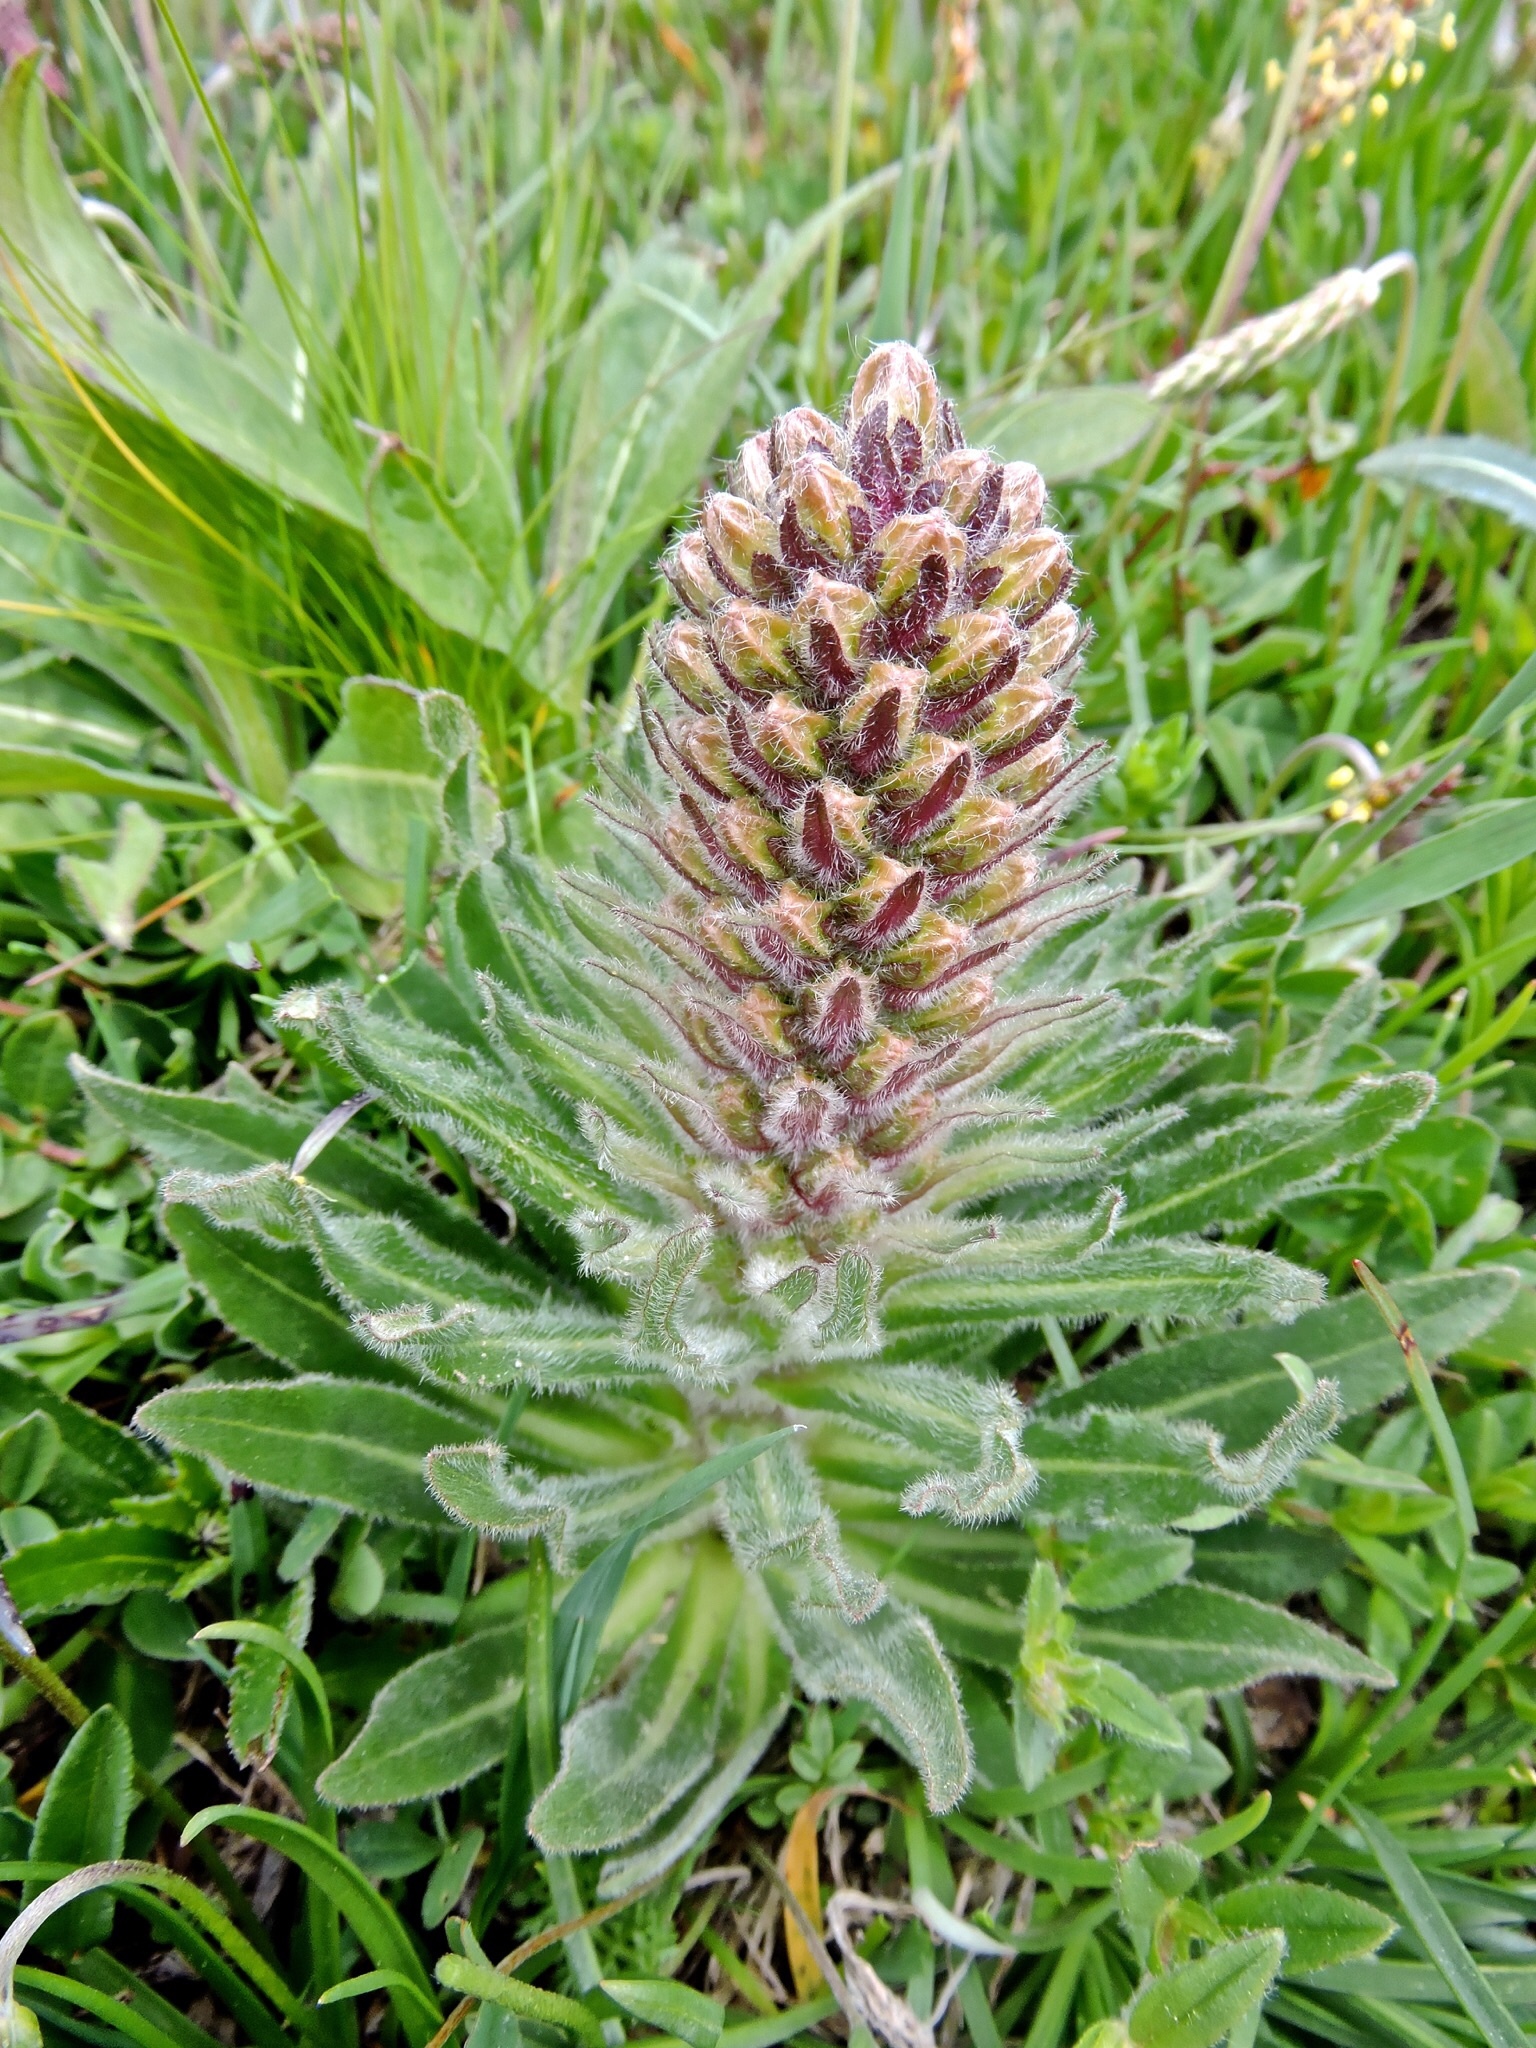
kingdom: Plantae
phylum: Tracheophyta
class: Magnoliopsida
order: Asterales
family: Campanulaceae
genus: Campanula
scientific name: Campanula thyrsoides
